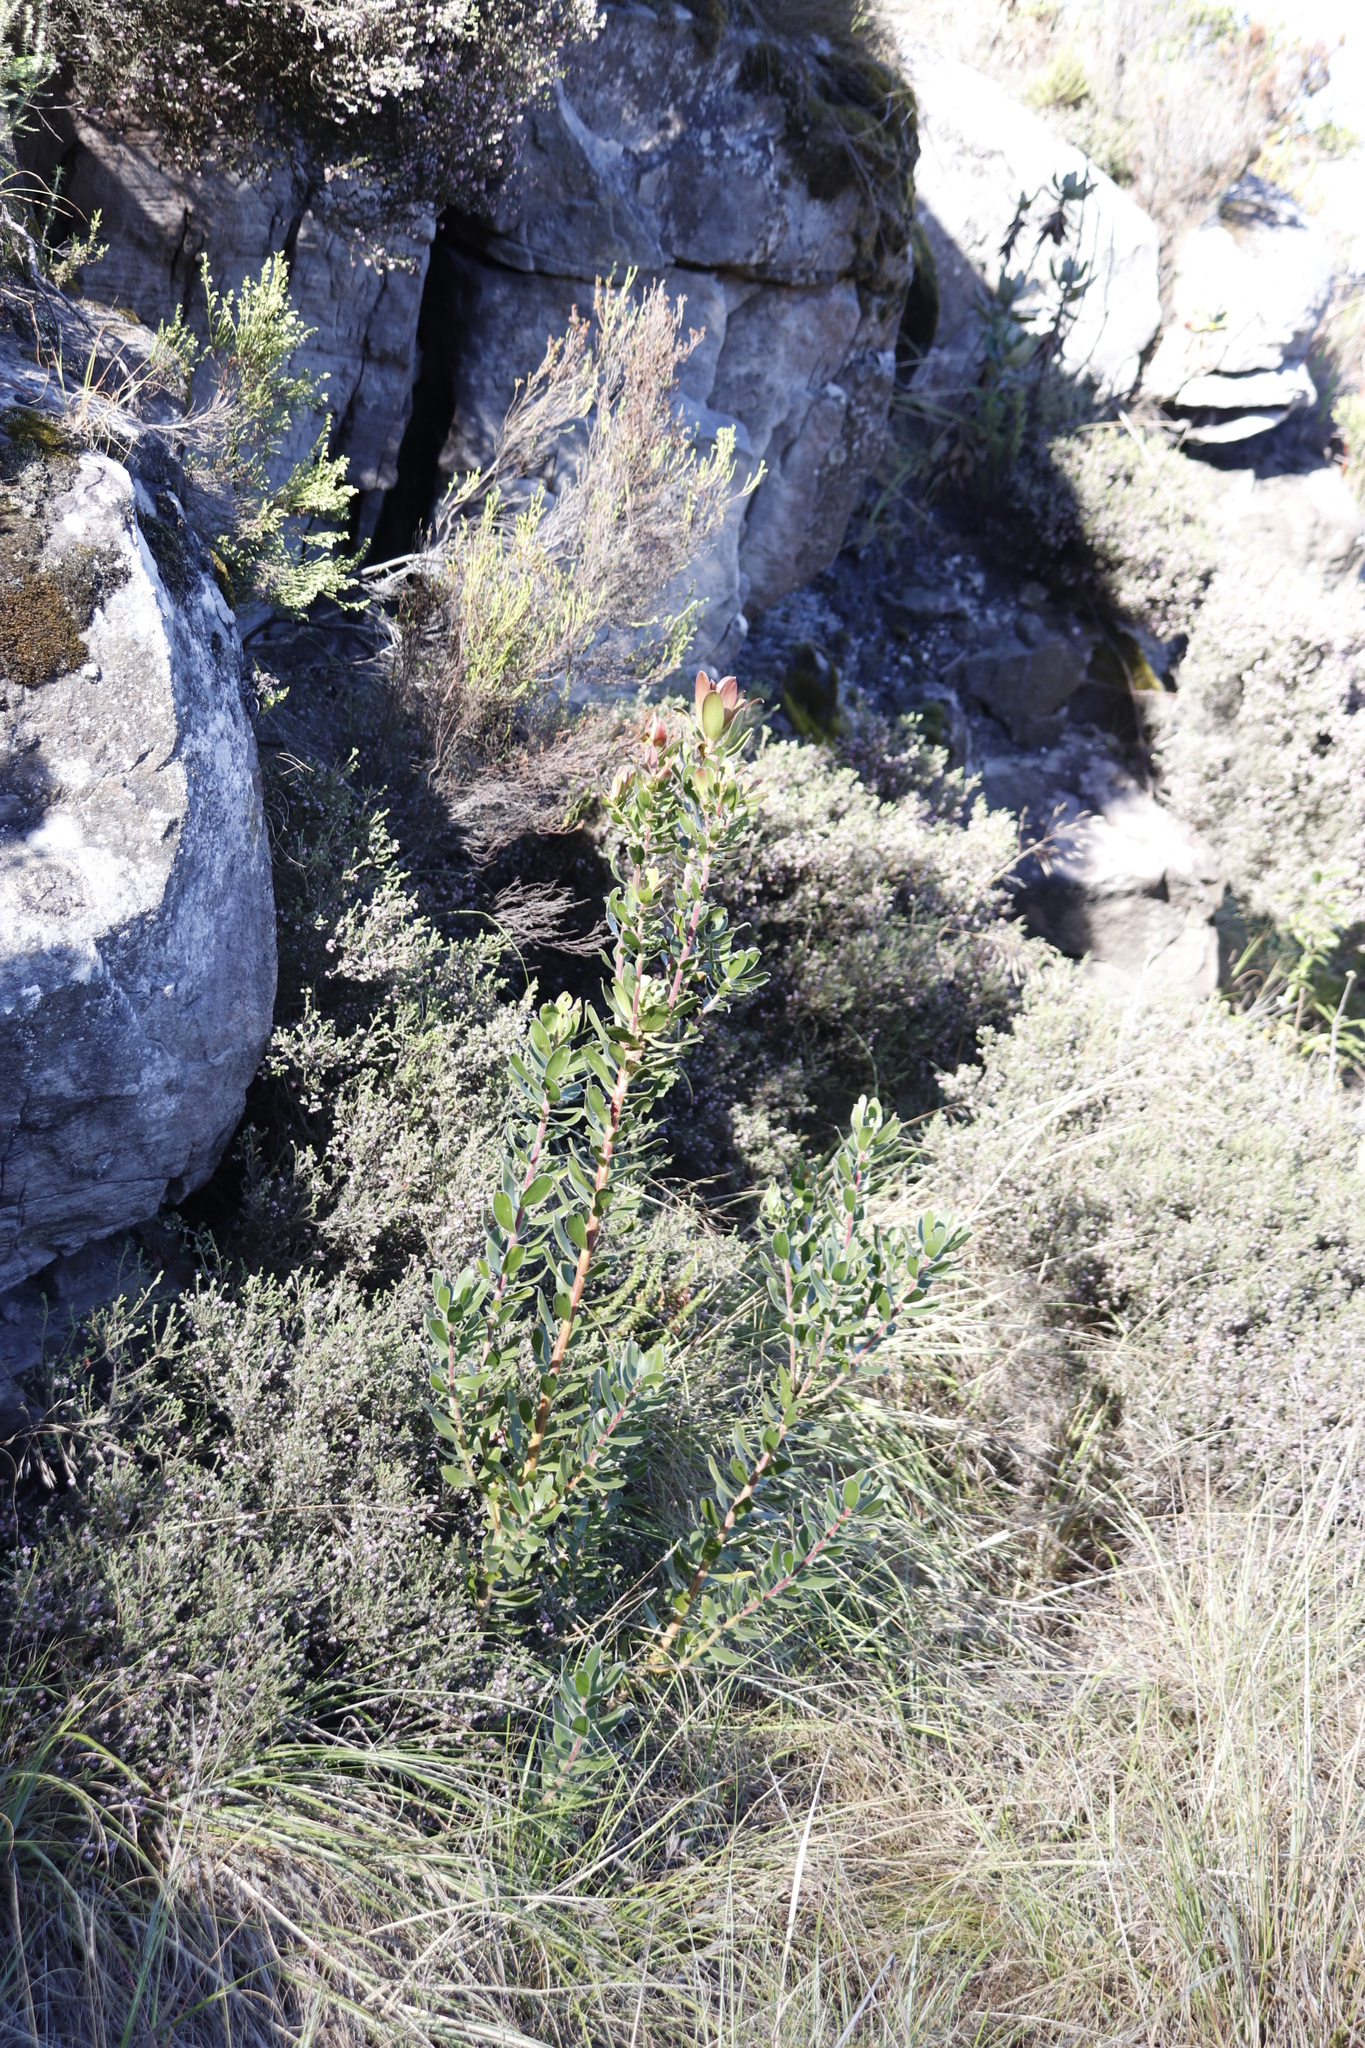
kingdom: Plantae
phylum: Tracheophyta
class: Magnoliopsida
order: Proteales
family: Proteaceae
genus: Leucadendron
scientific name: Leucadendron strobilinum
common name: Mountain rose
